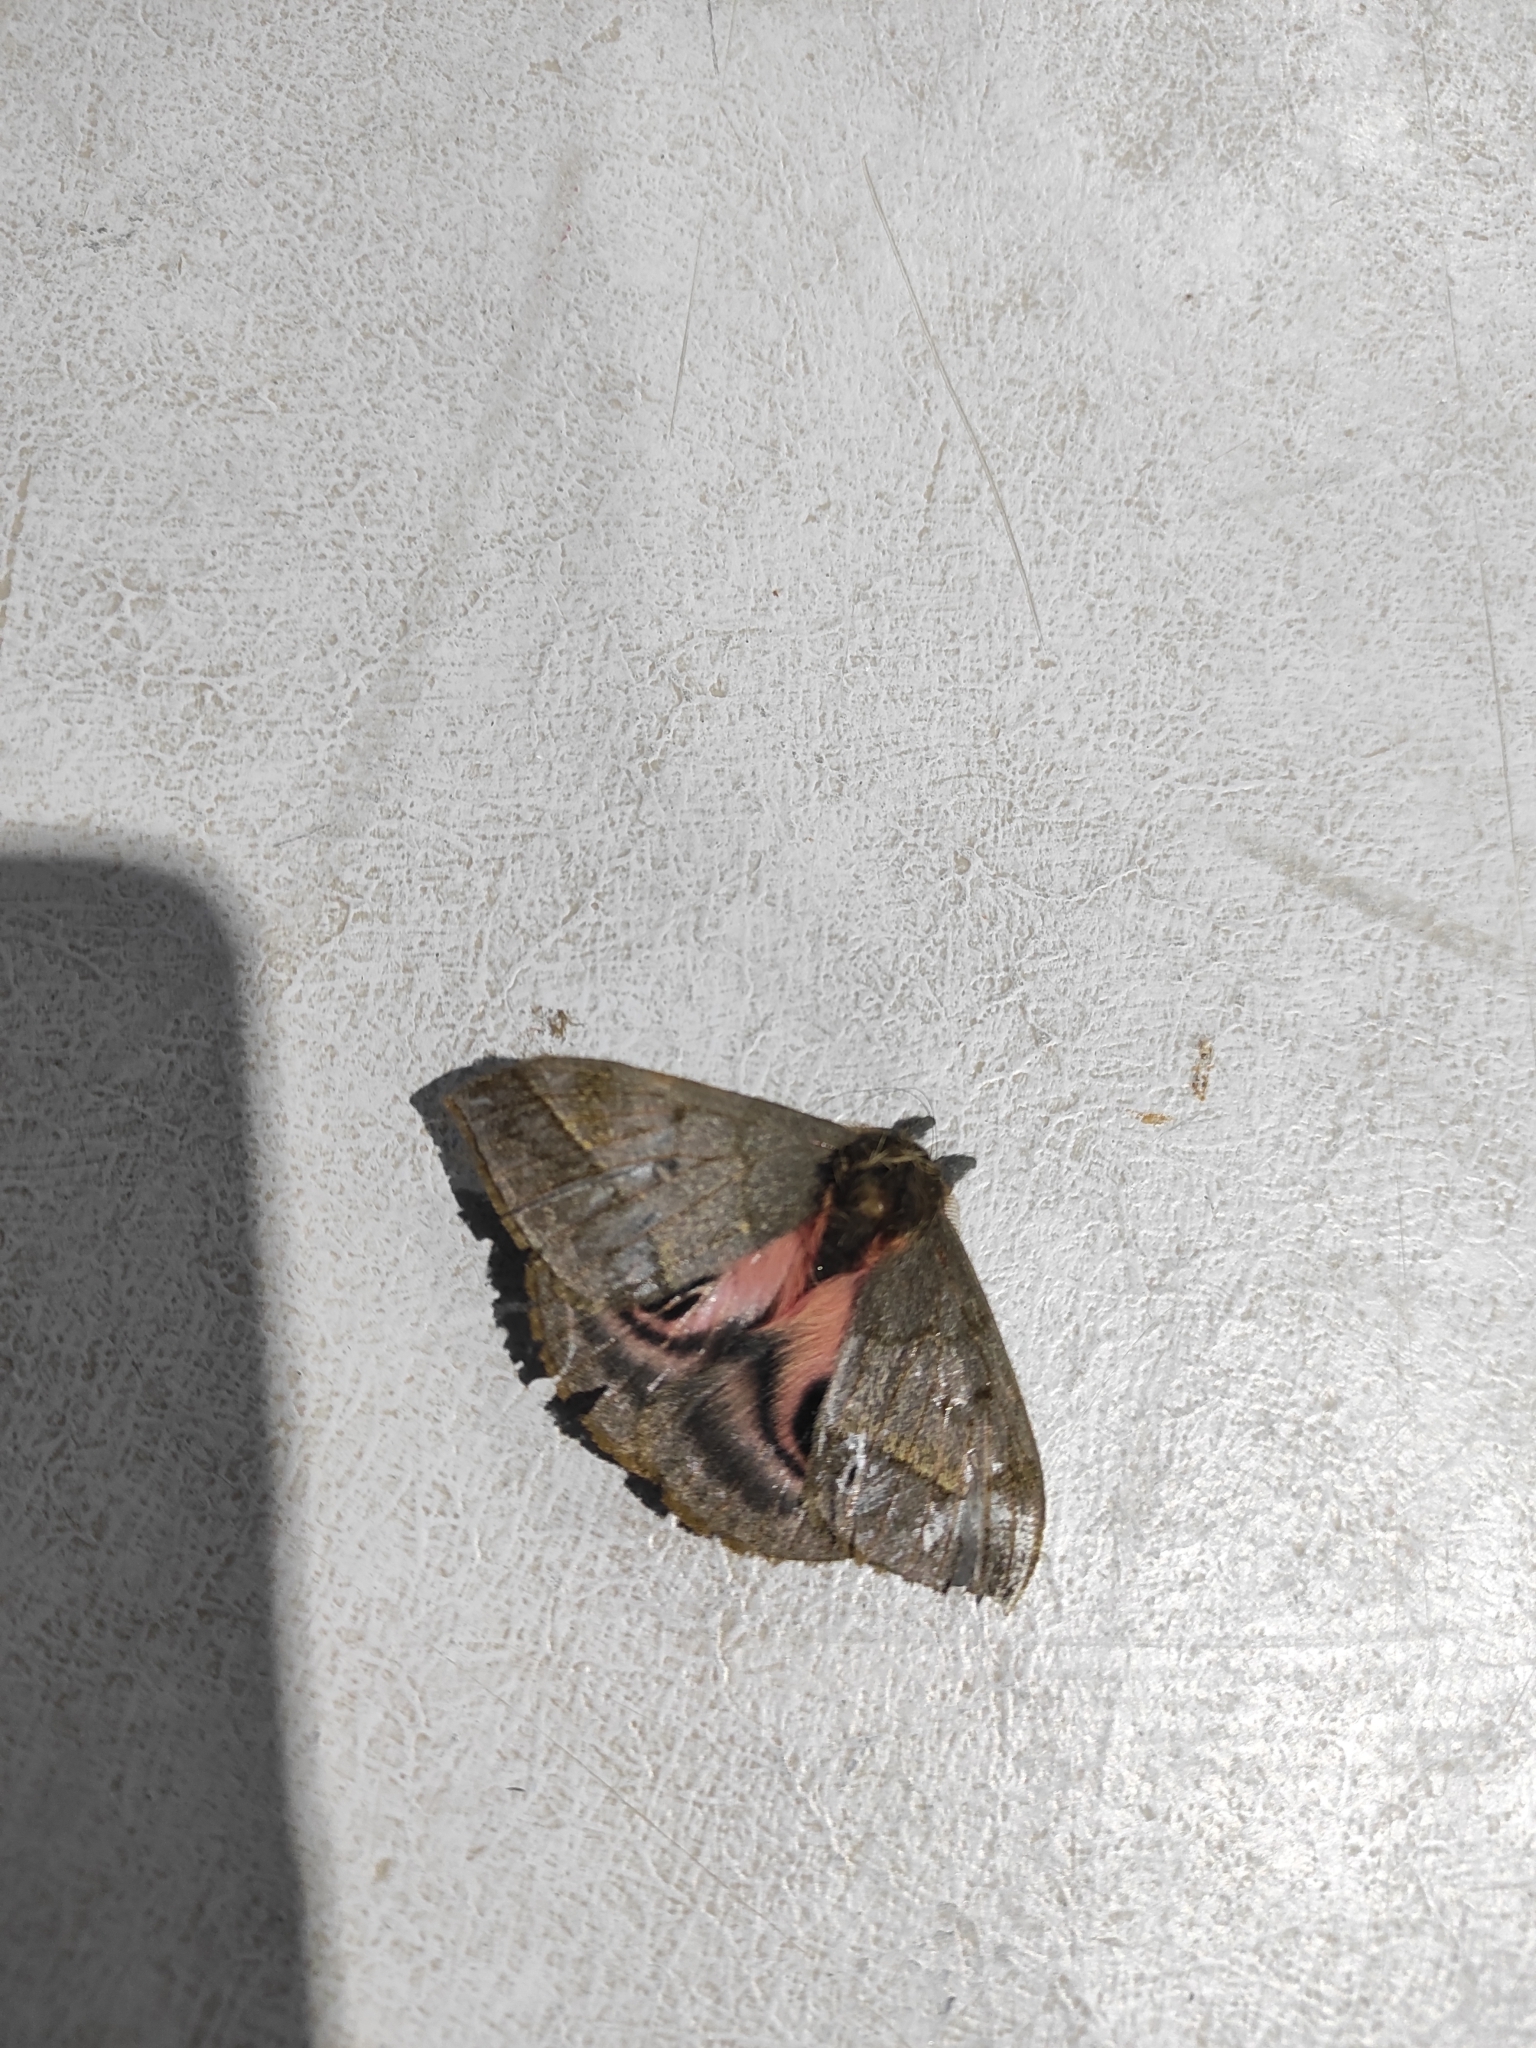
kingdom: Animalia
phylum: Arthropoda
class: Insecta
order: Lepidoptera
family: Saturniidae
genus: Automeris
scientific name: Automeris pallidior
